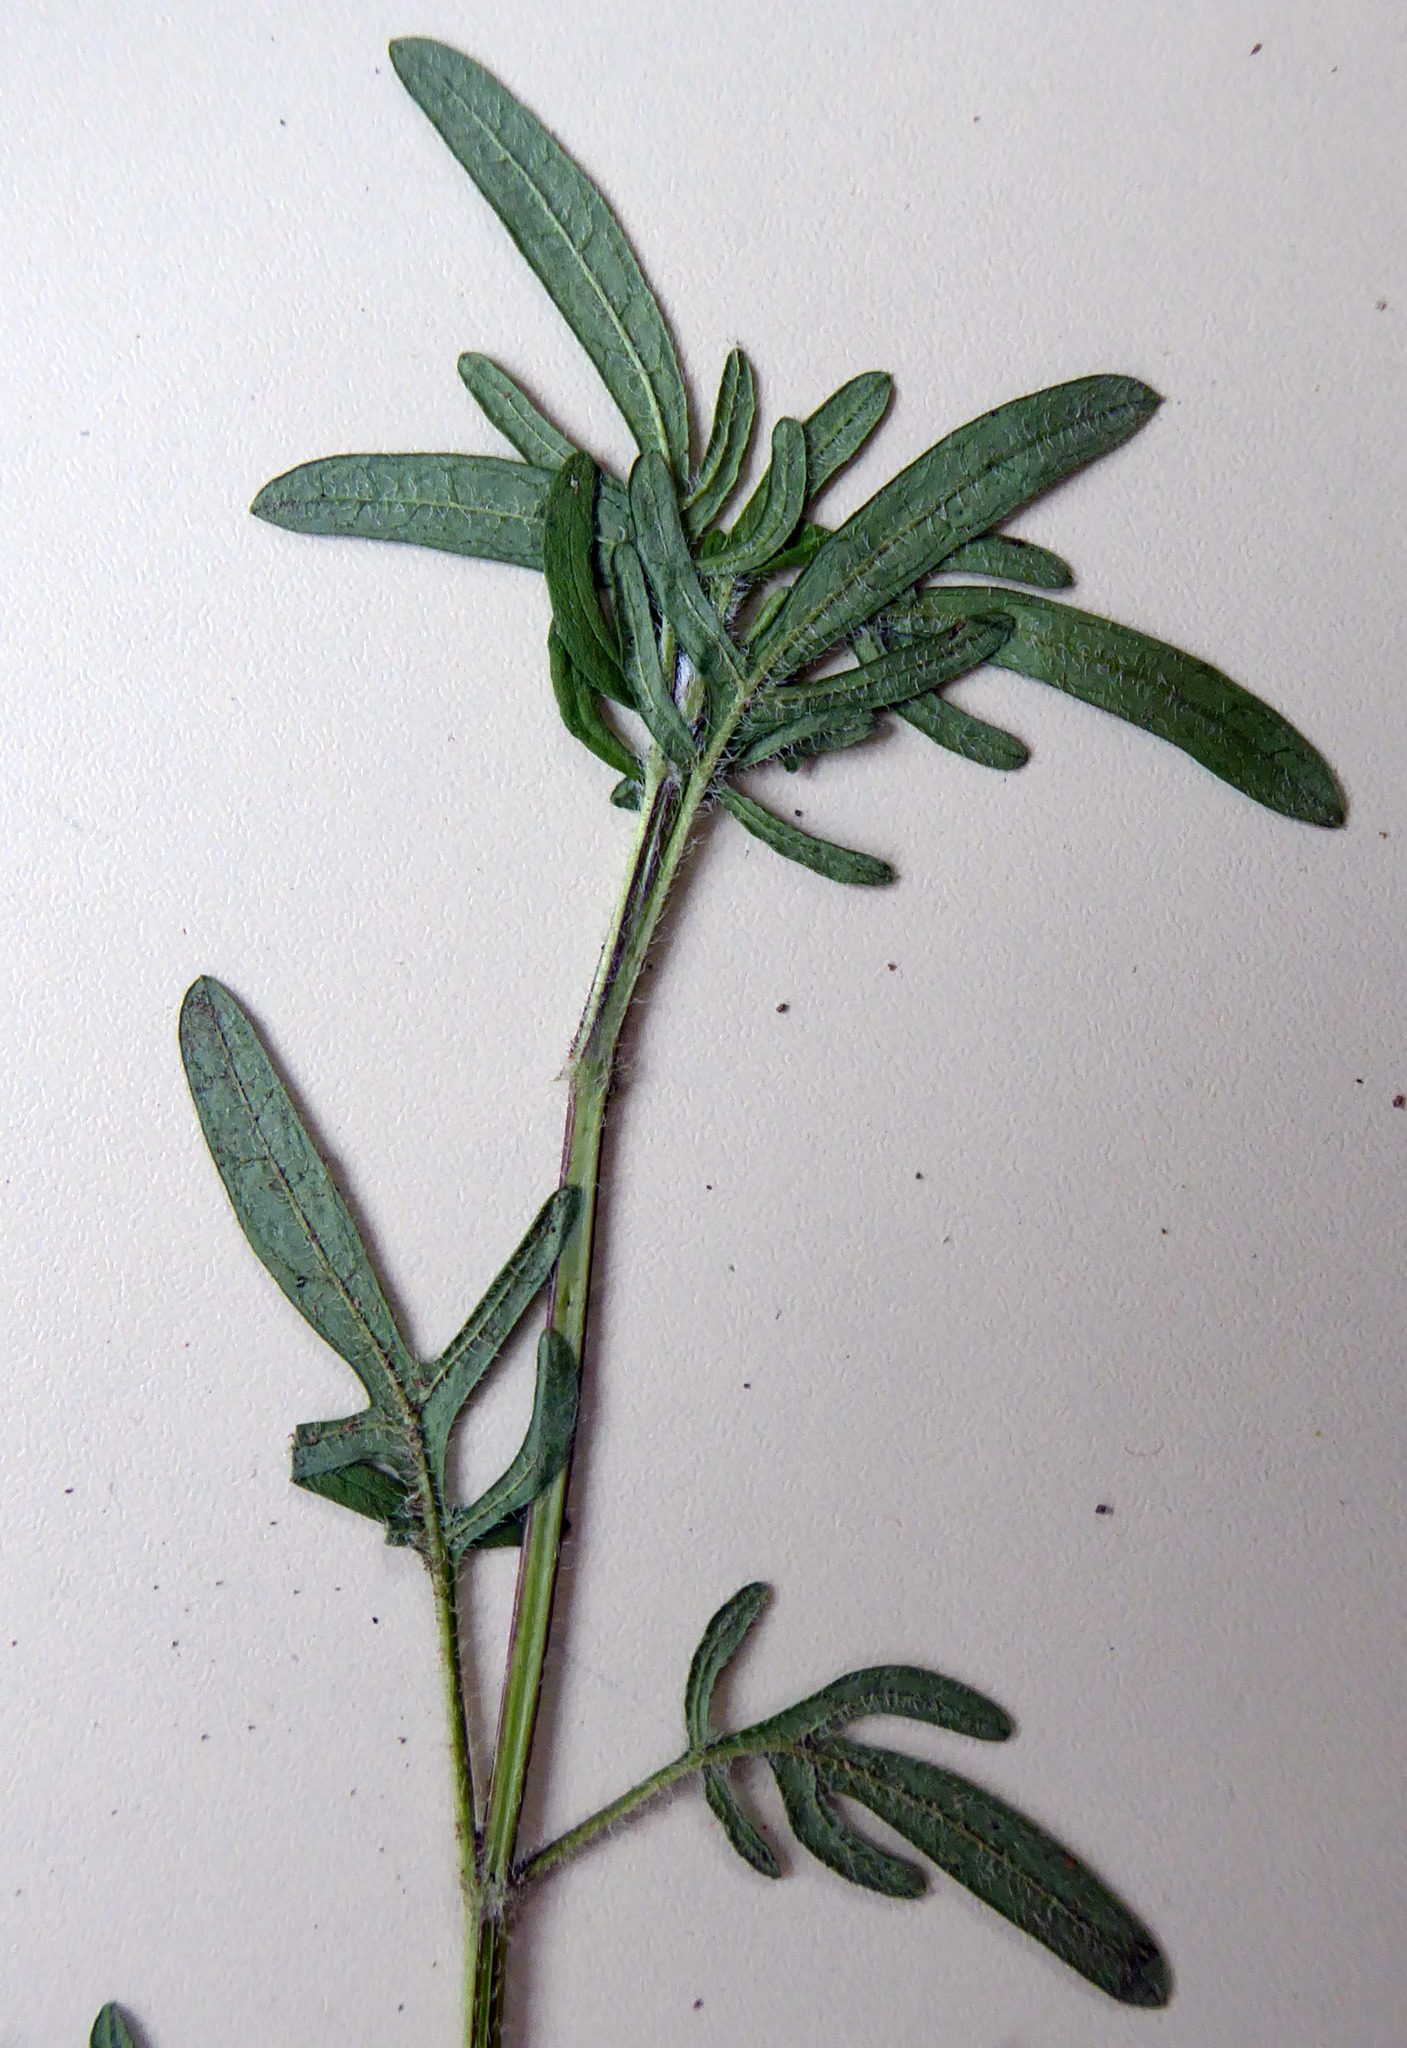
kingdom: Plantae
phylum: Tracheophyta
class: Magnoliopsida
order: Lamiales
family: Lamiaceae
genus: Prunella
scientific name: Prunella intermedia
